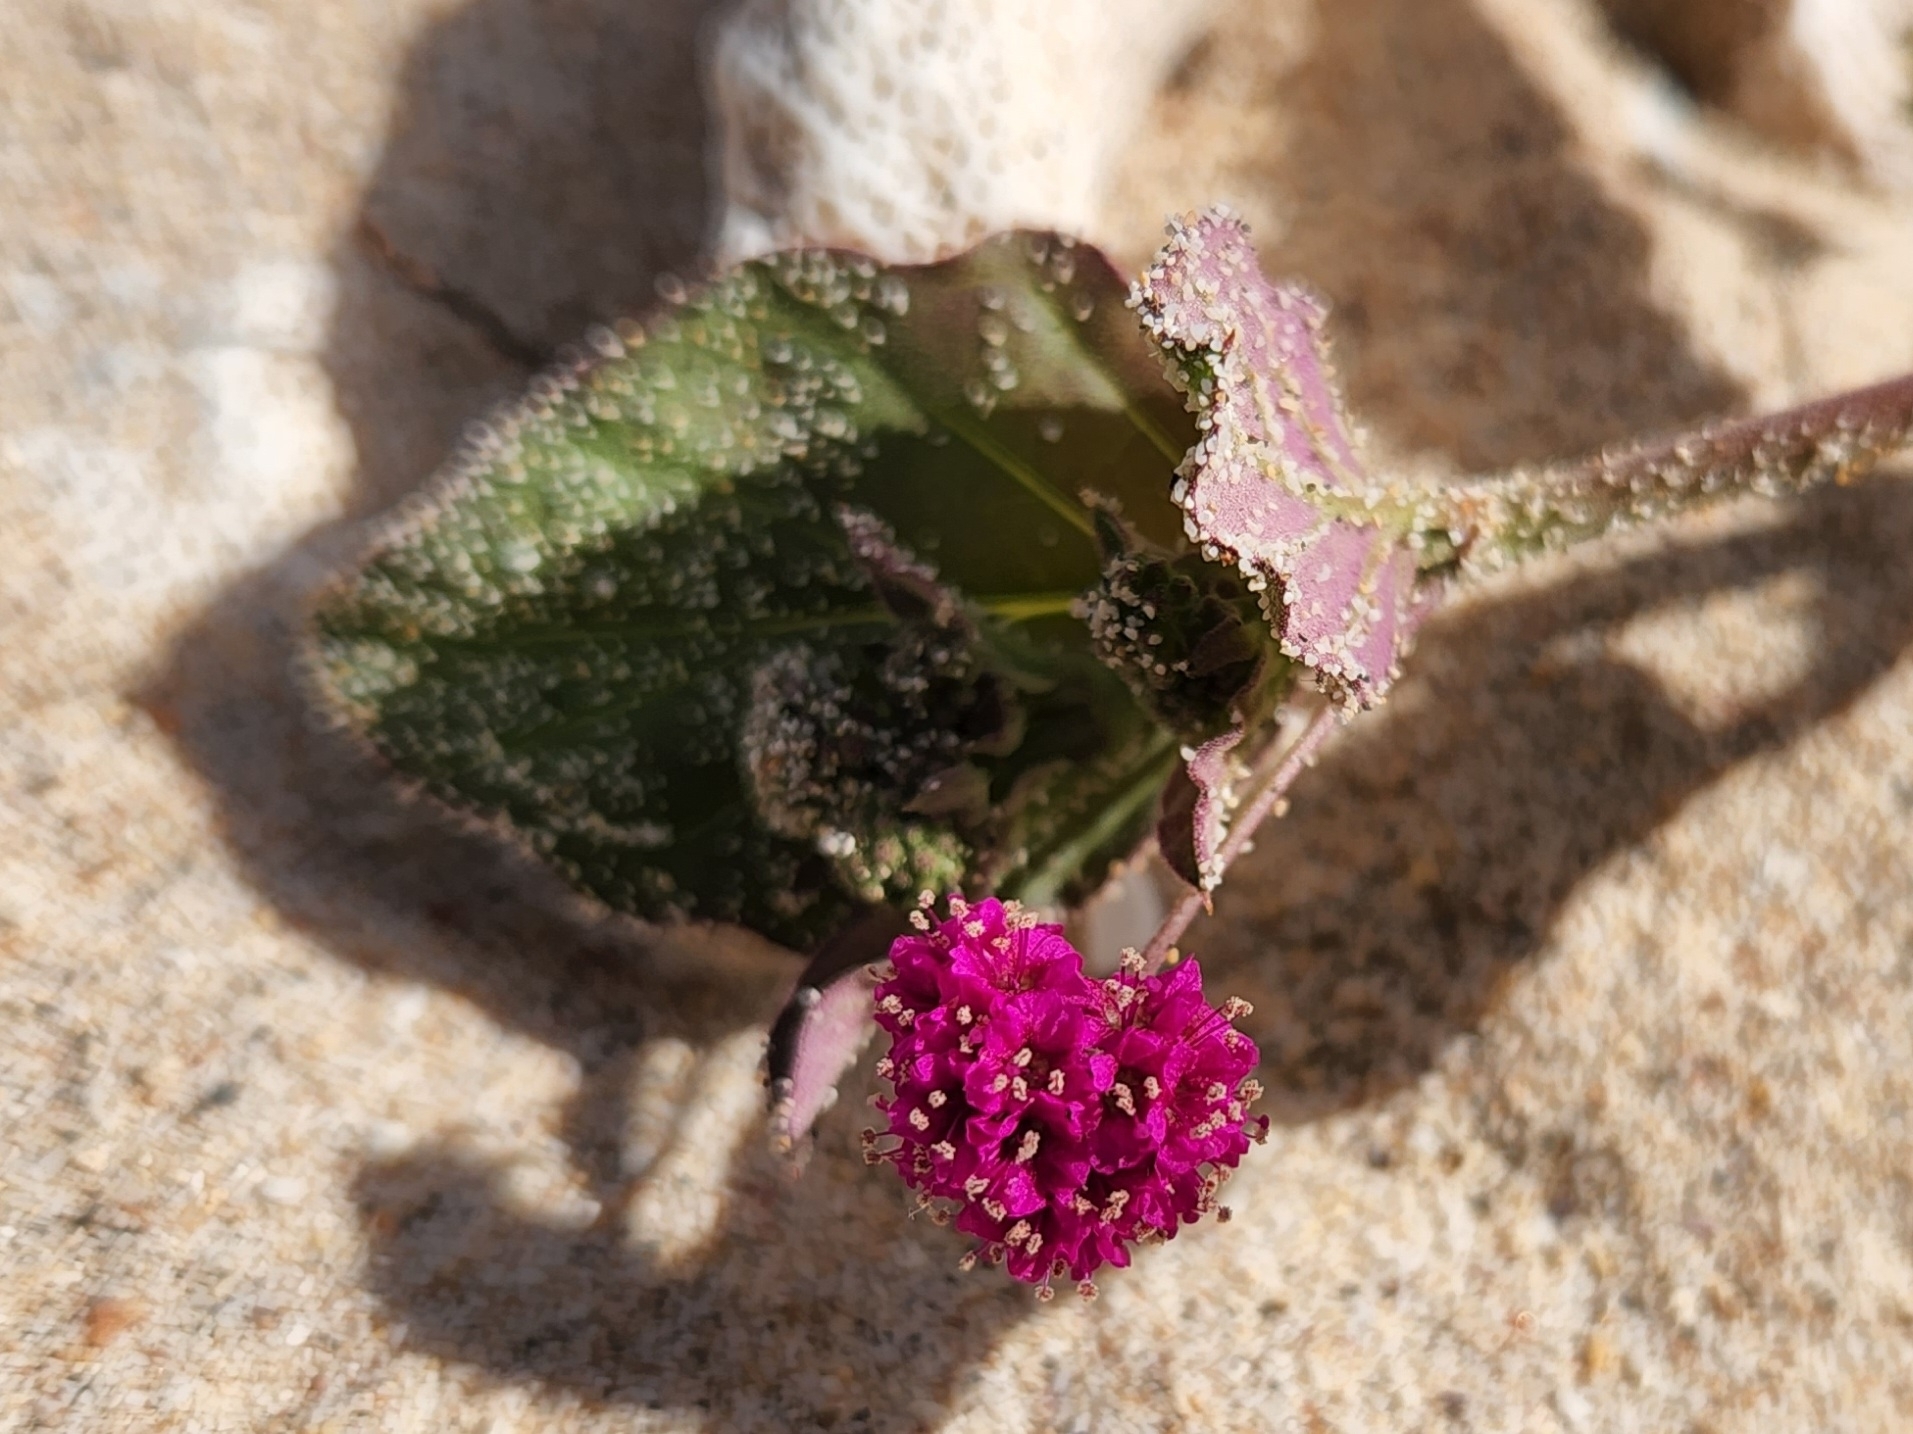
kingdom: Plantae
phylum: Tracheophyta
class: Magnoliopsida
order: Caryophyllales
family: Nyctaginaceae
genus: Boerhavia
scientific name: Boerhavia coccinea
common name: Scarlet spiderling
